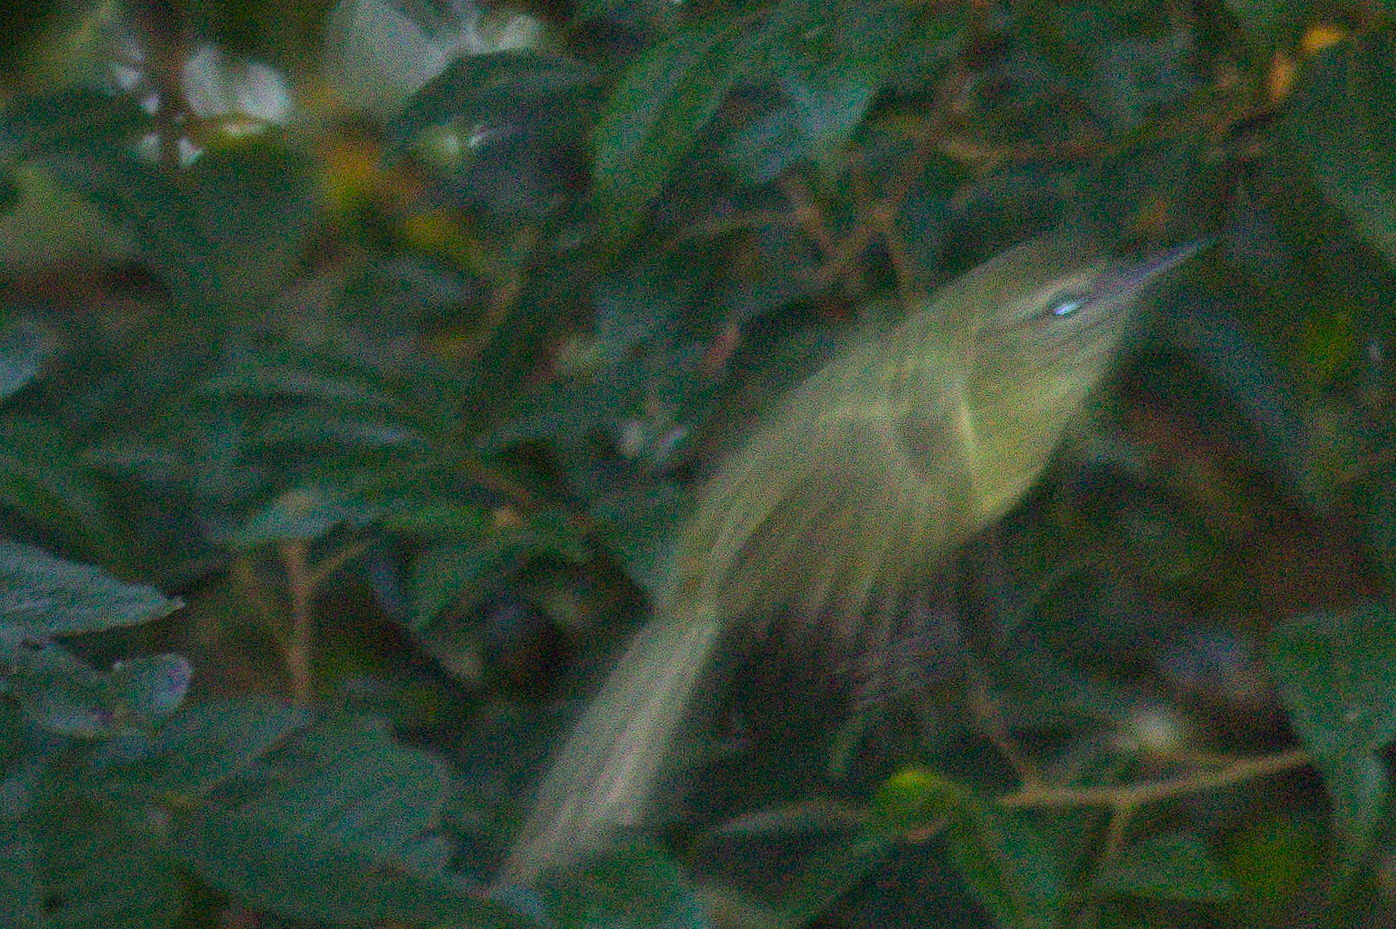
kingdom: Animalia
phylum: Chordata
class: Aves
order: Passeriformes
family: Tyrannidae
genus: Phylloscartes
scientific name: Phylloscartes ventralis
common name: Mottle-cheeked tyrannulet
